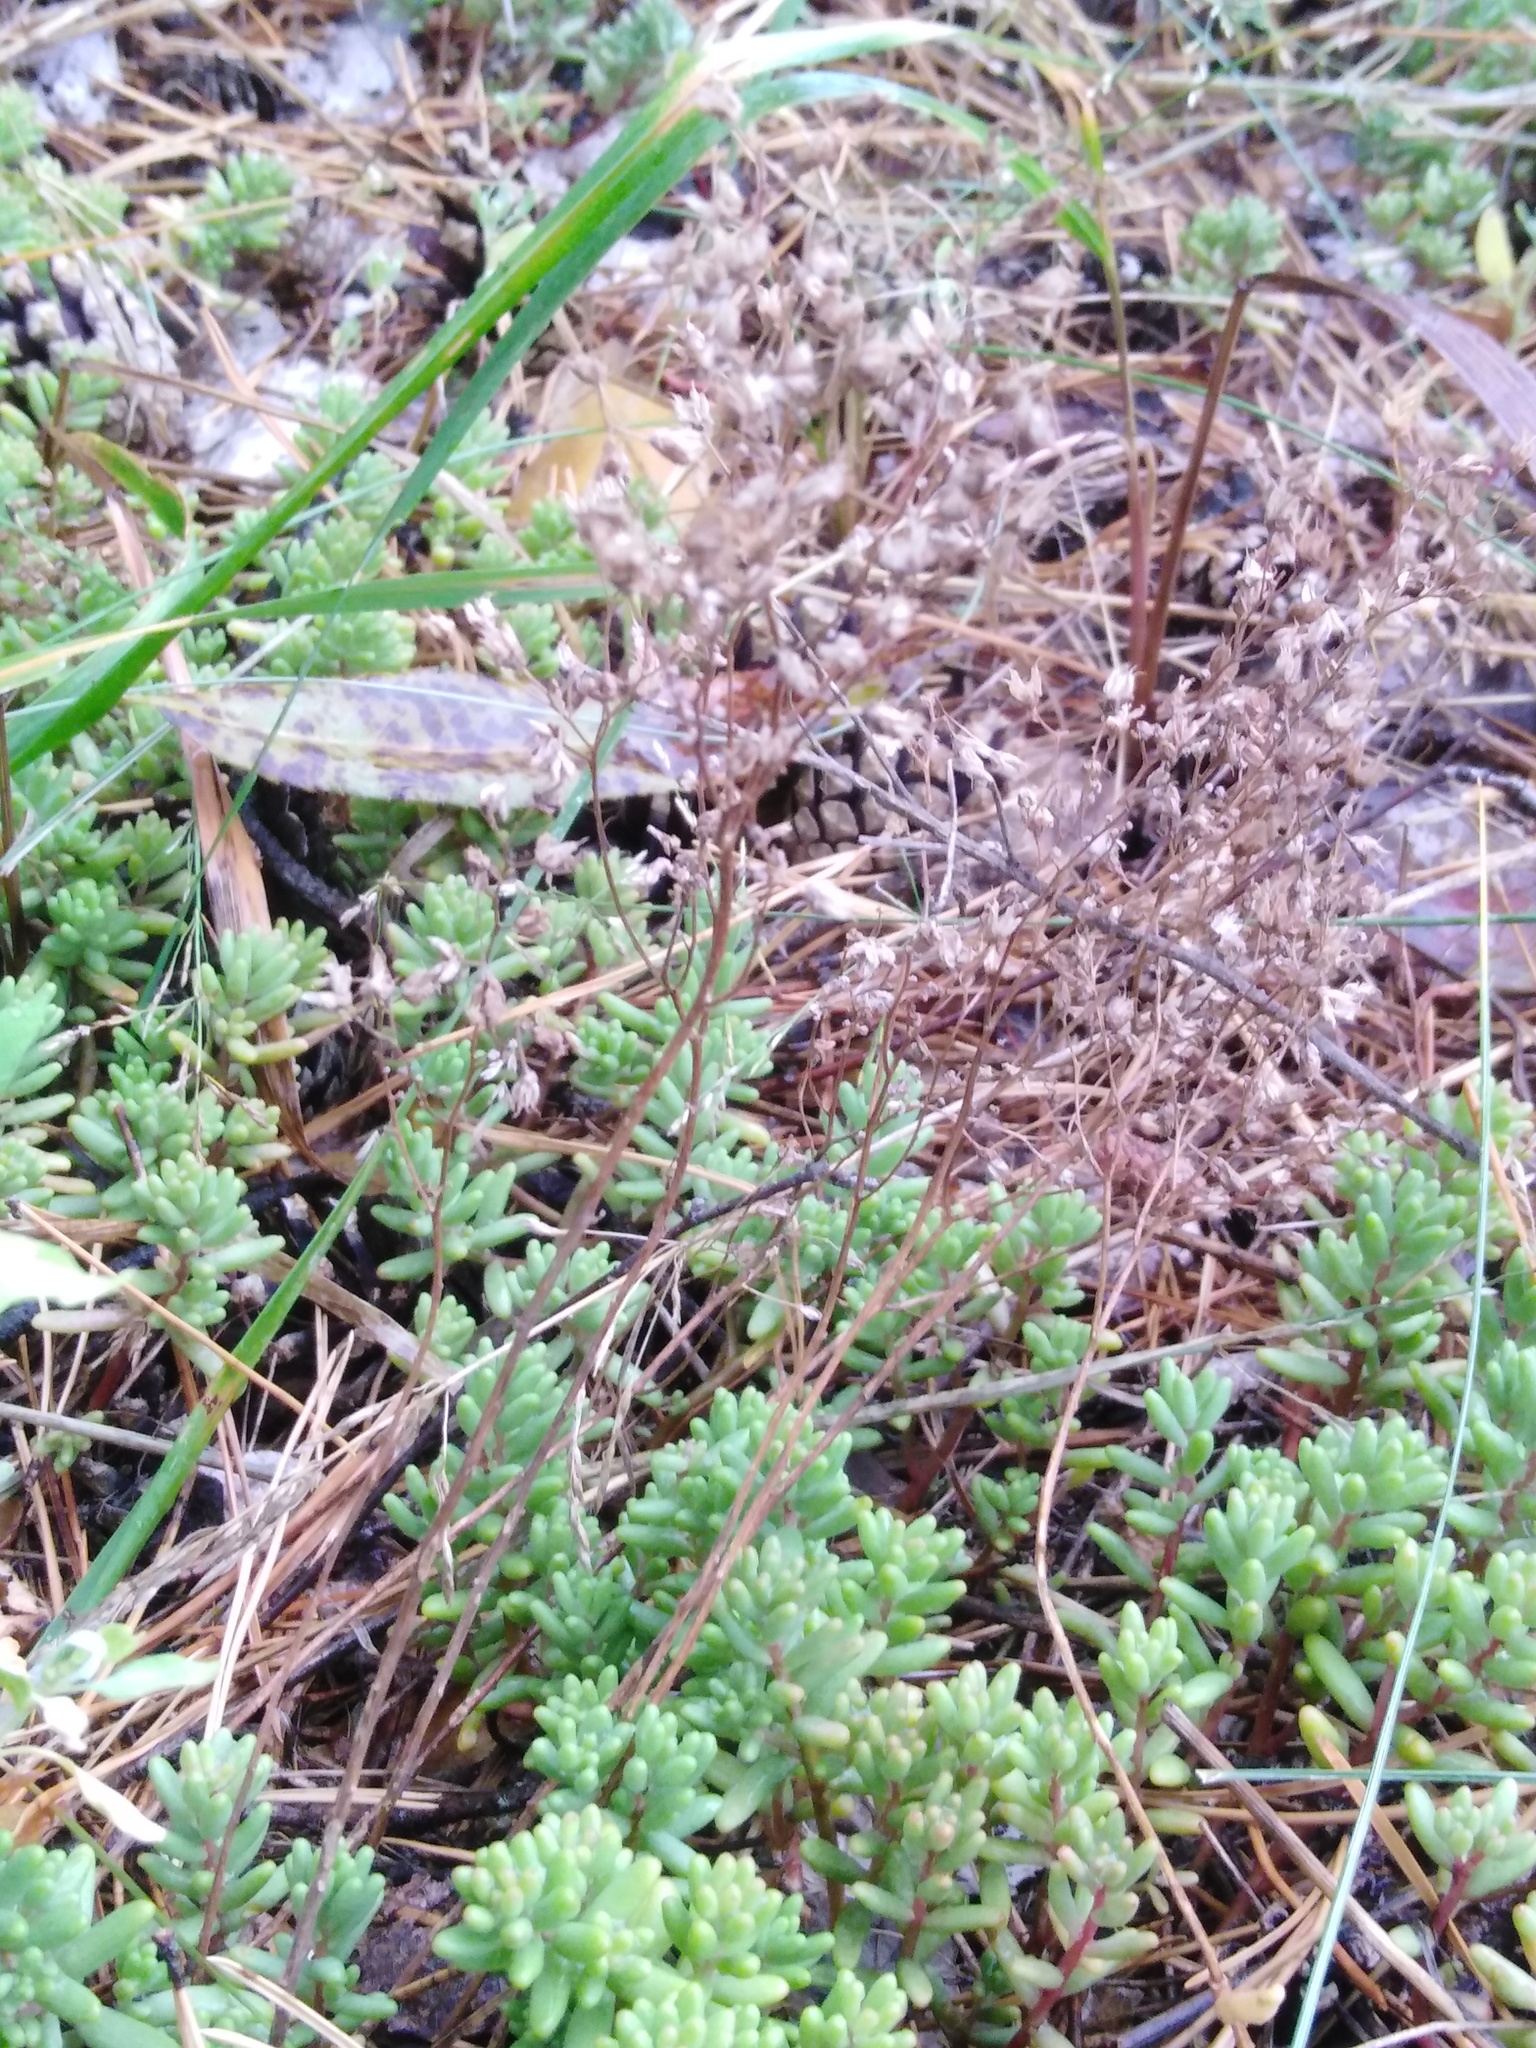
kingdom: Plantae
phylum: Tracheophyta
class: Magnoliopsida
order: Saxifragales
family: Crassulaceae
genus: Sedum
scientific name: Sedum album
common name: White stonecrop
